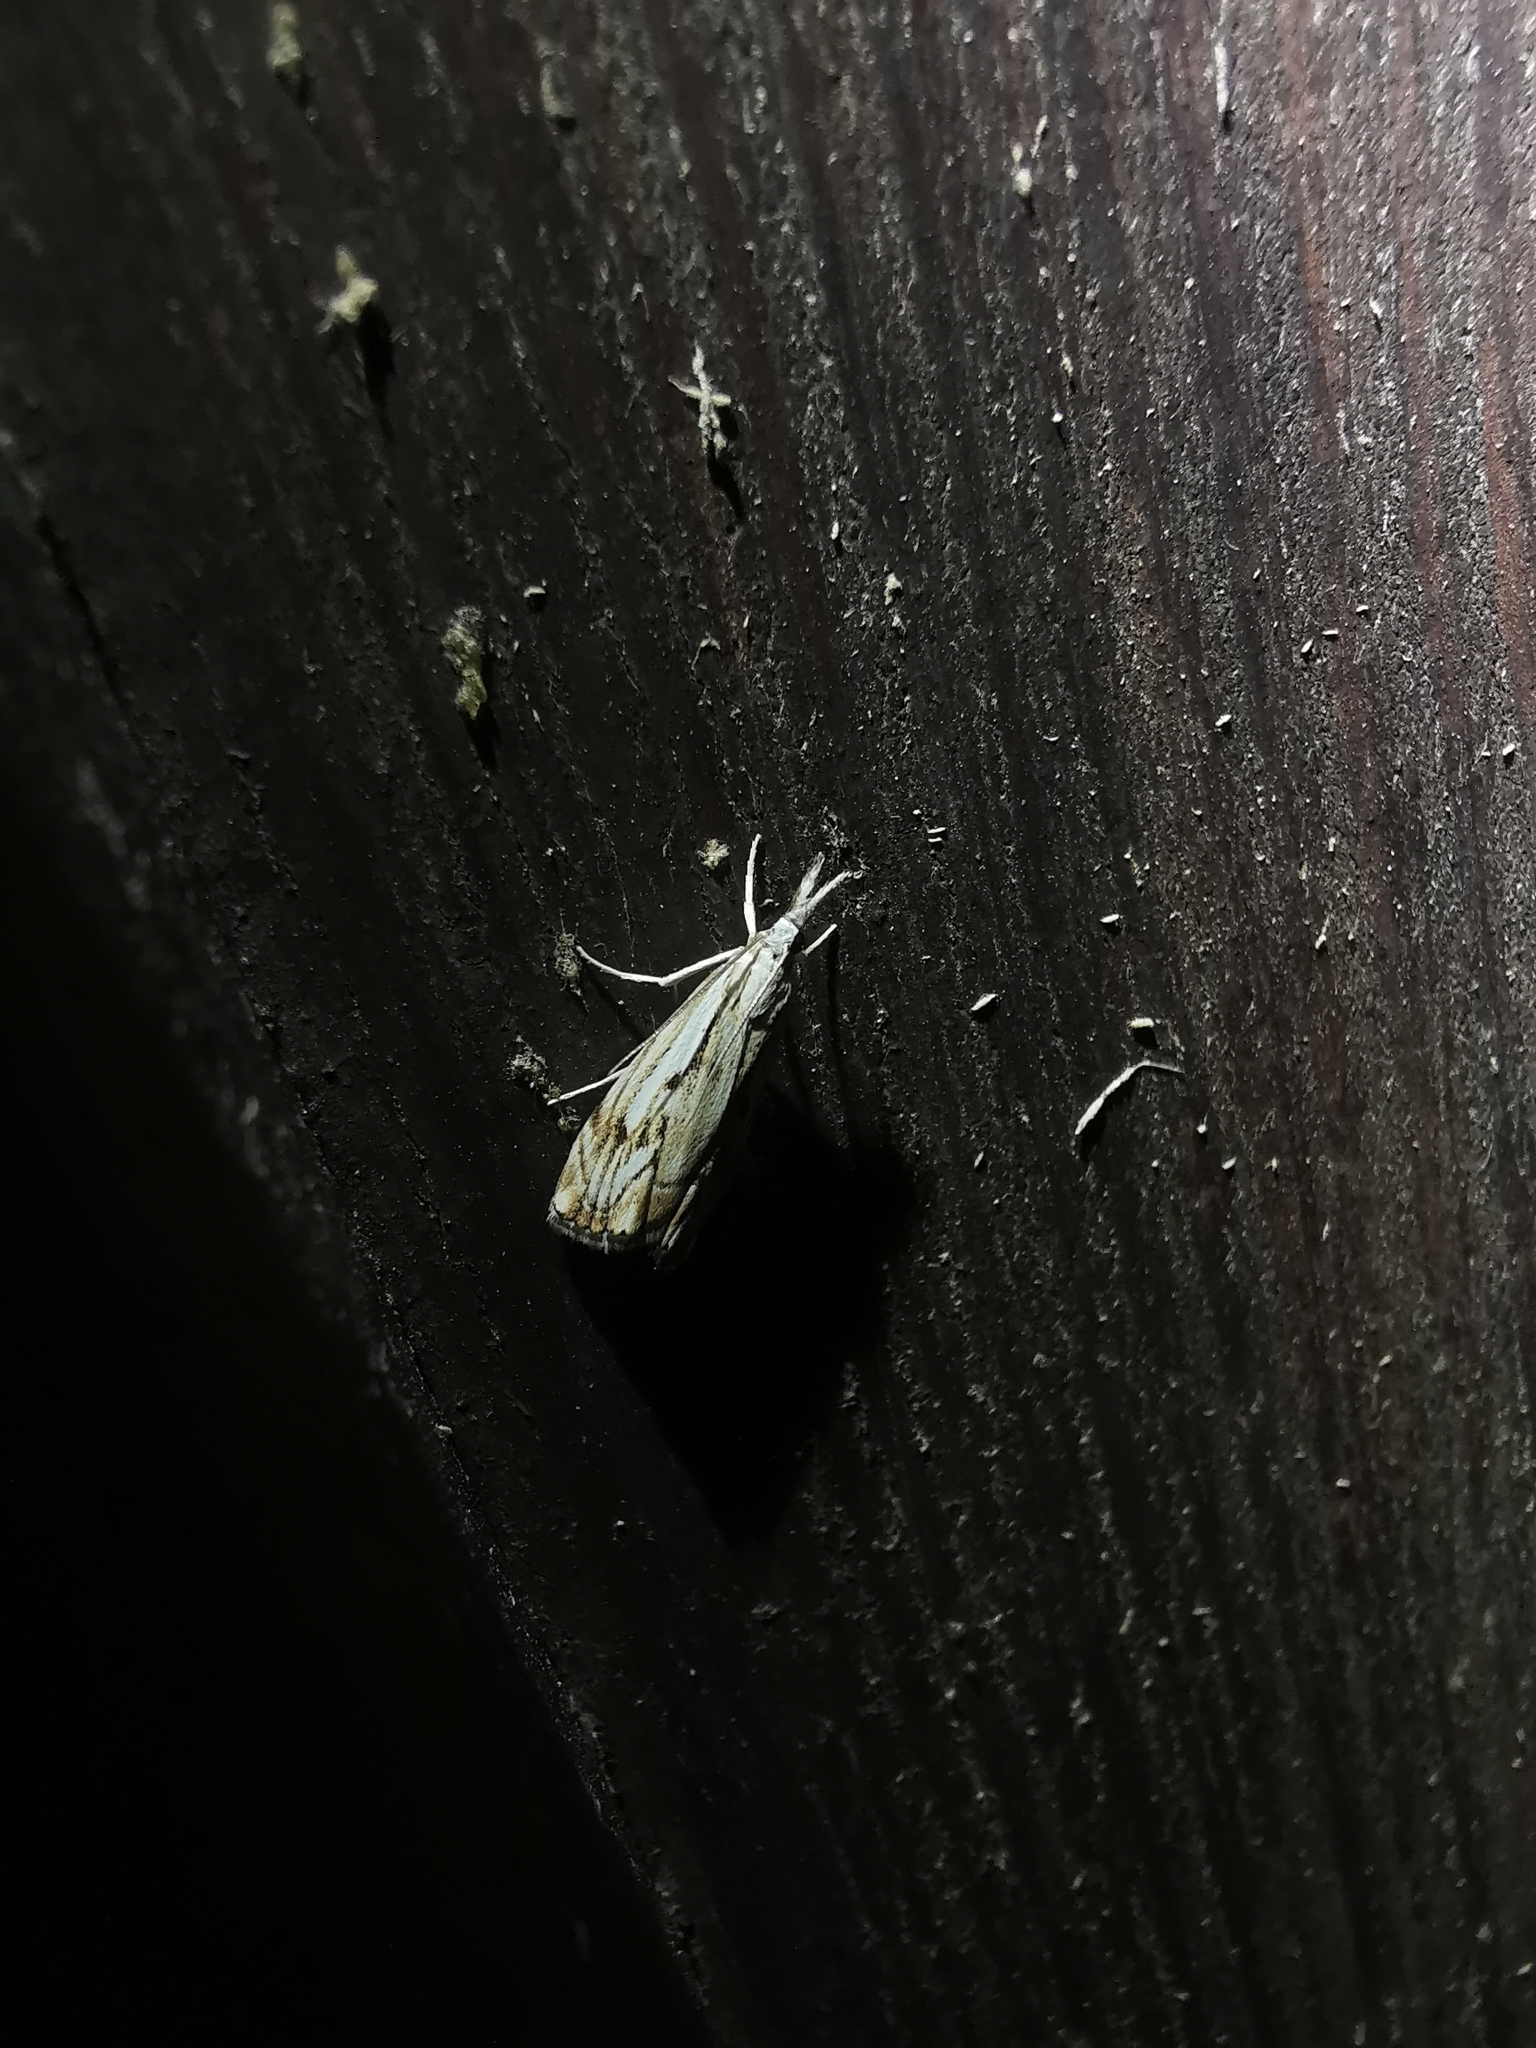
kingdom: Animalia
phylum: Arthropoda
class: Insecta
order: Lepidoptera
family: Crambidae
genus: Catoptria
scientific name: Catoptria falsella
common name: Chequered grass-veneer
